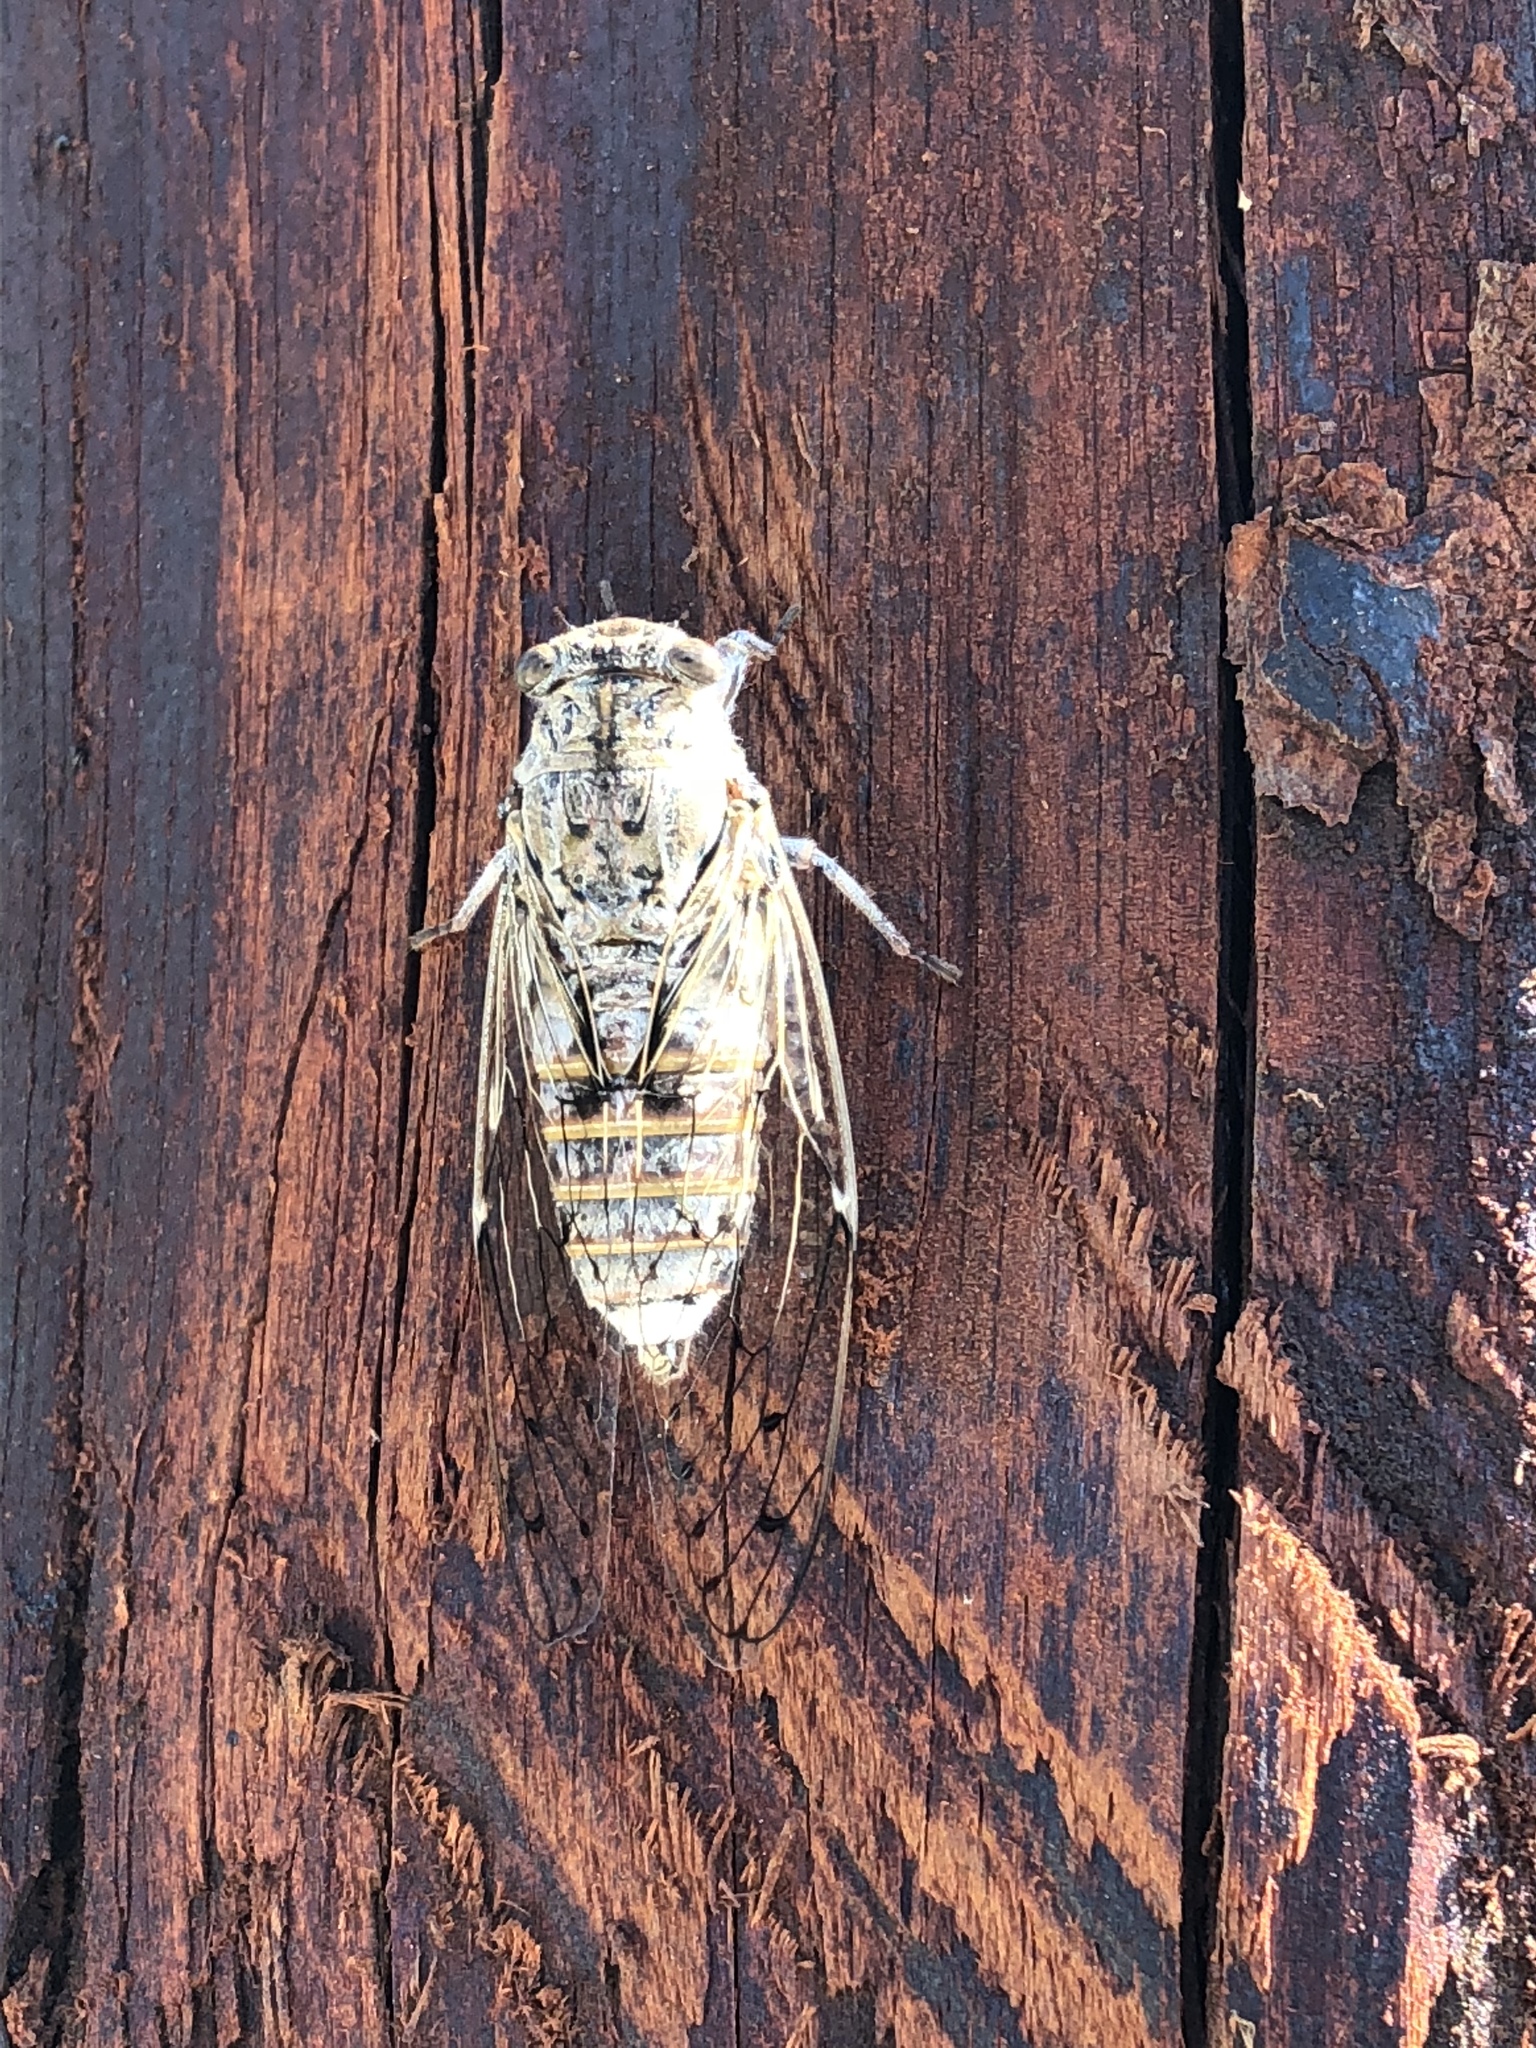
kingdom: Animalia
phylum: Arthropoda
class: Insecta
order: Hemiptera
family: Cicadidae
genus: Cicada
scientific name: Cicada cretensis
